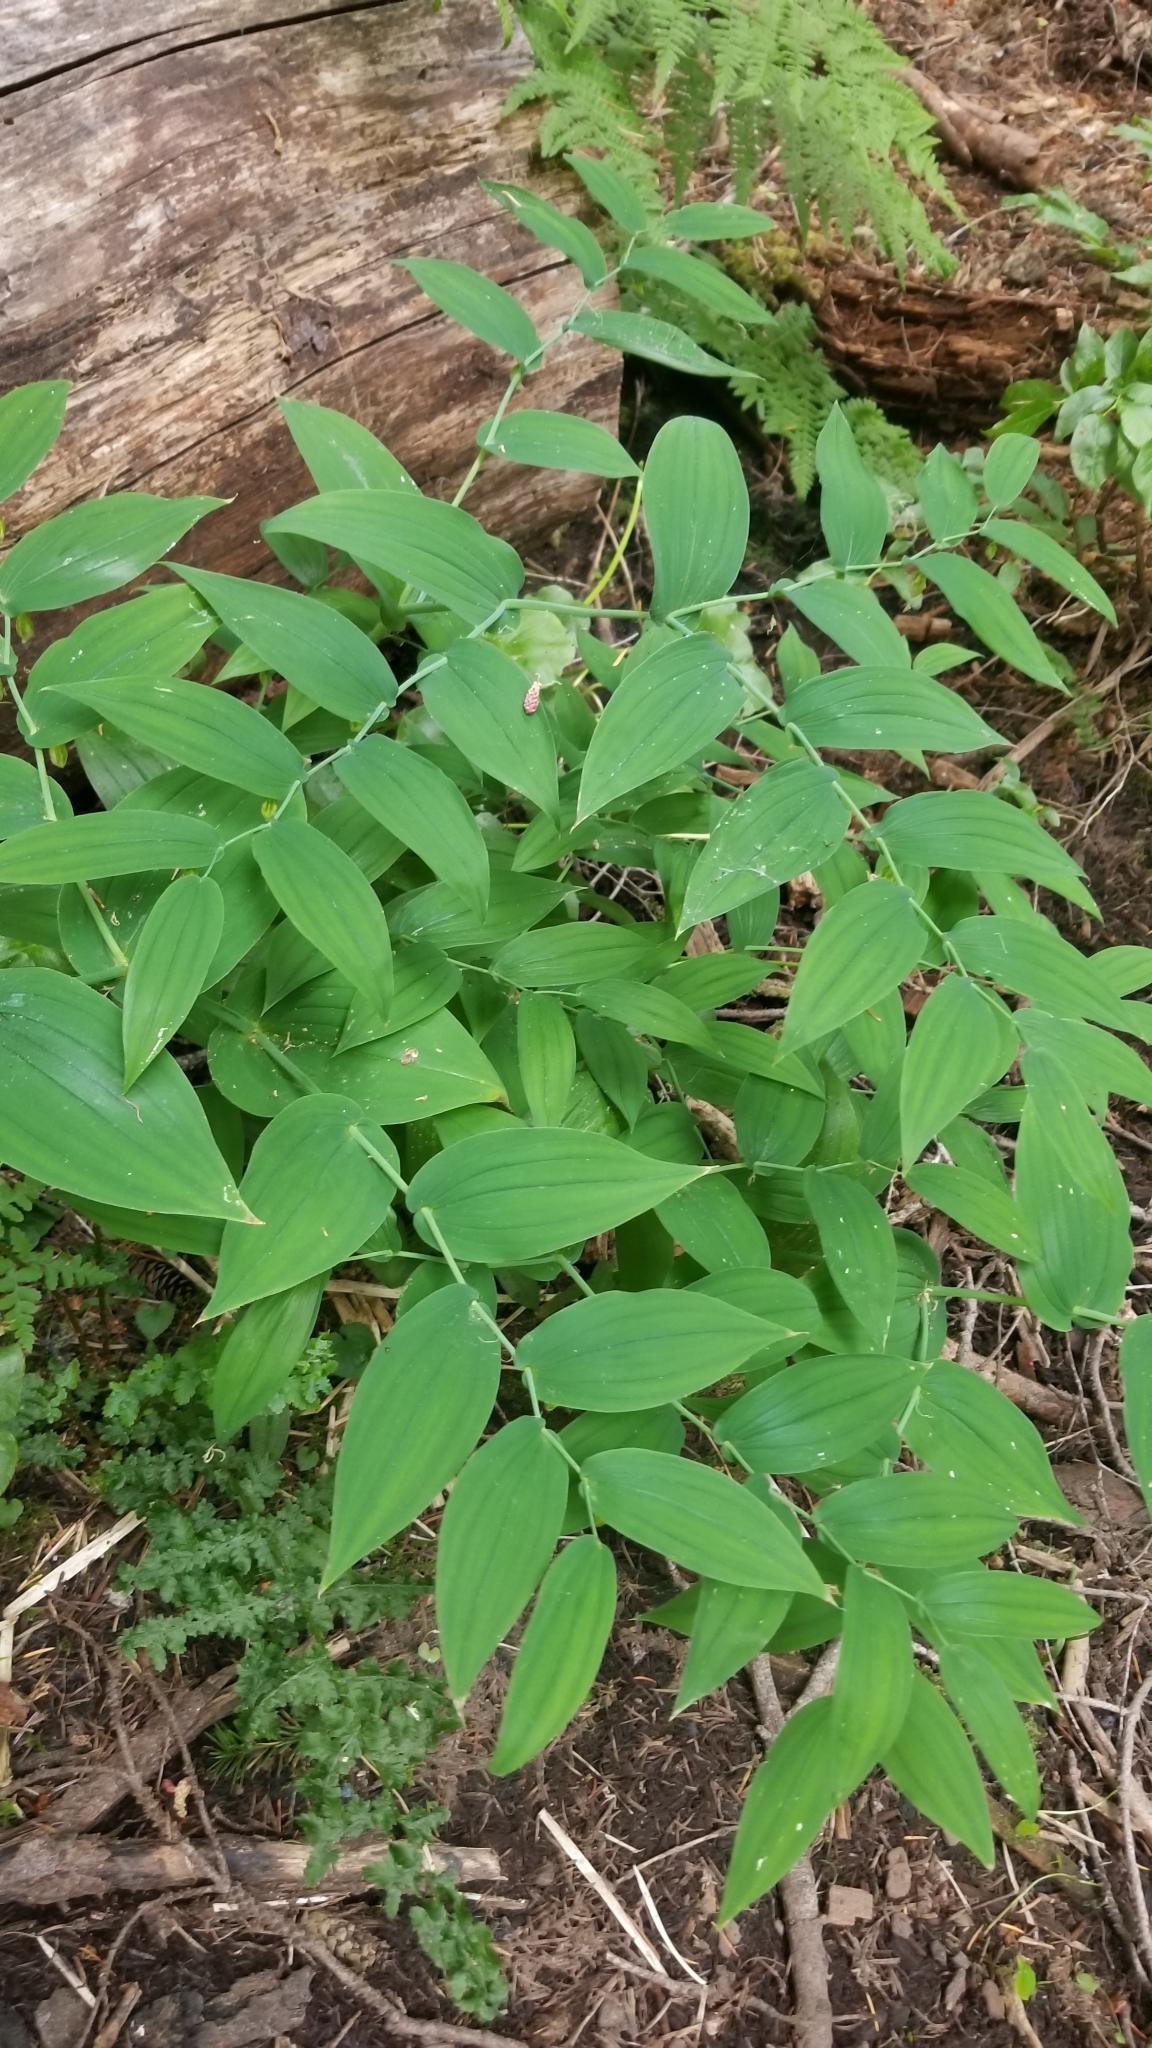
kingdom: Plantae
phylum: Tracheophyta
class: Liliopsida
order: Liliales
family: Liliaceae
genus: Streptopus
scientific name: Streptopus amplexifolius
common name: Clasp twisted stalk
